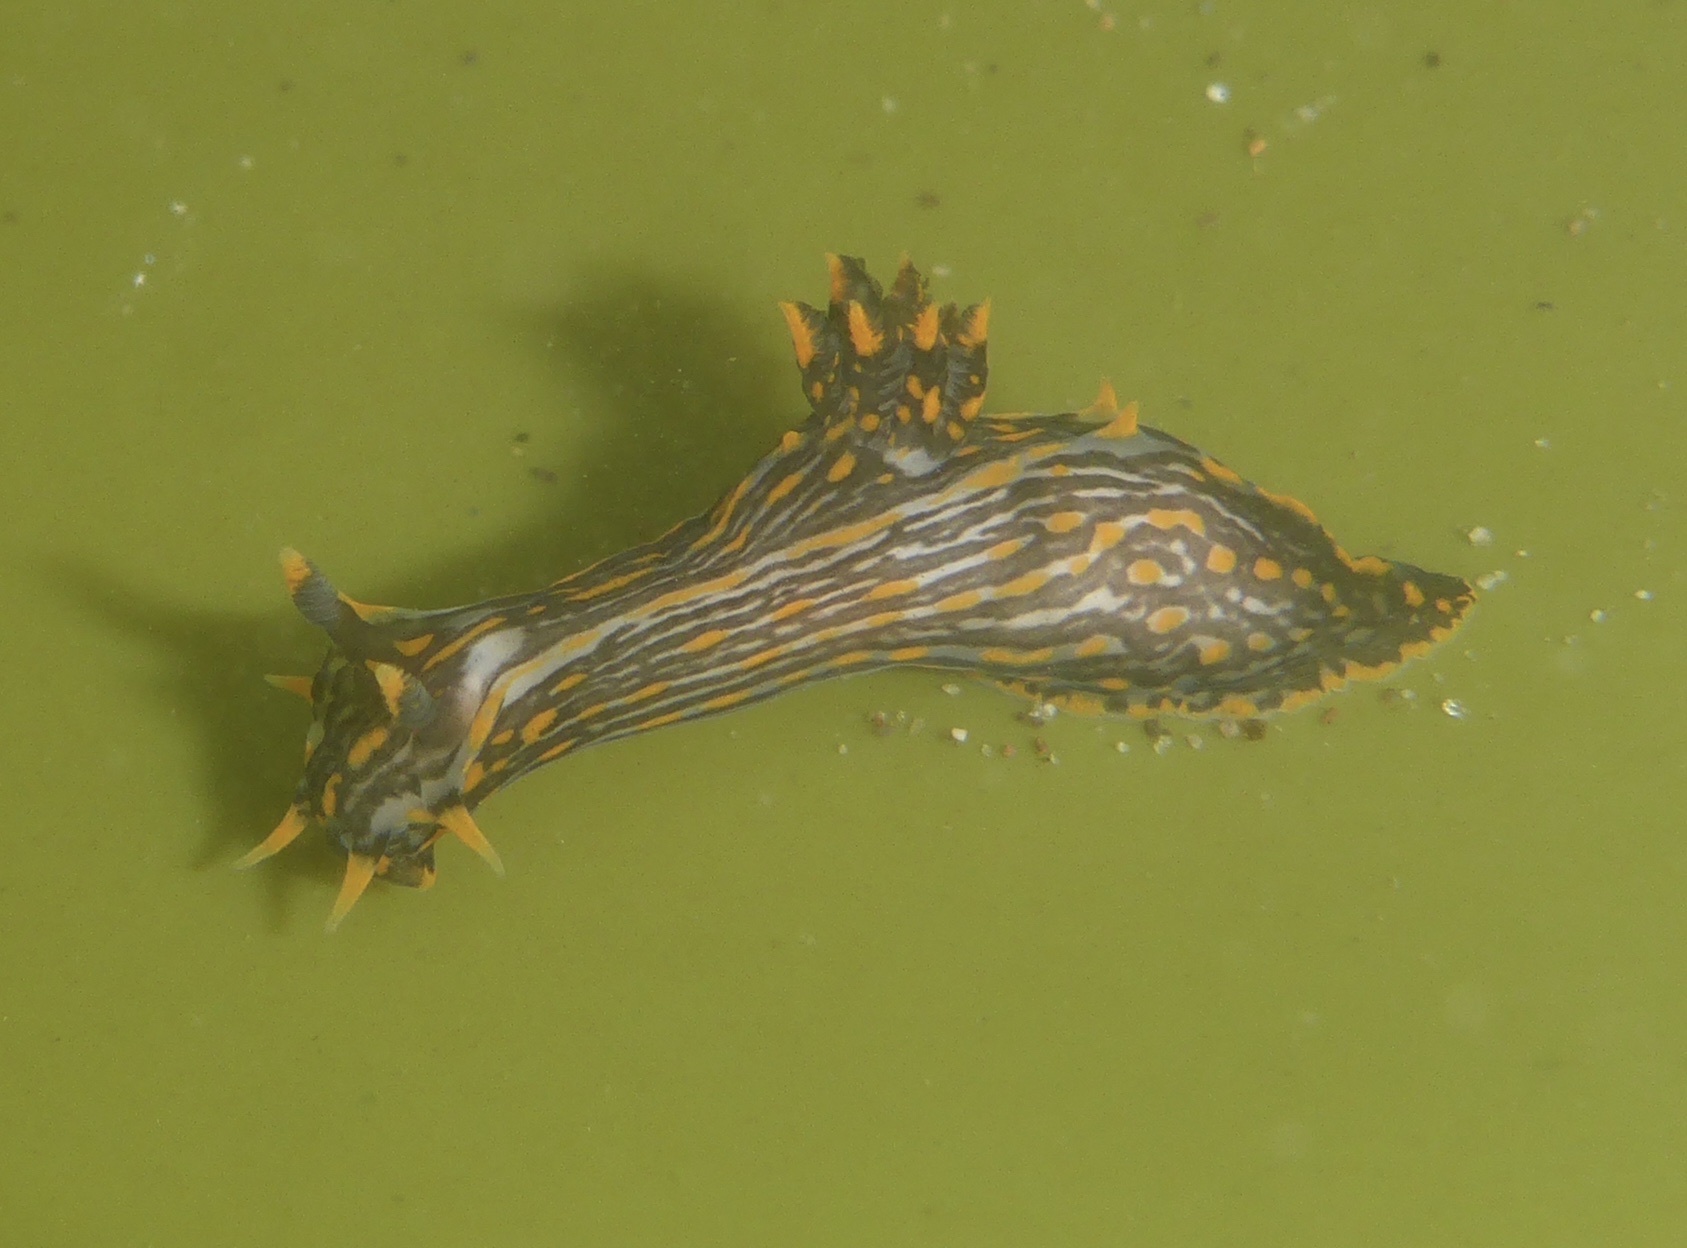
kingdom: Animalia
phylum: Mollusca
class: Gastropoda
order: Nudibranchia
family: Polyceridae
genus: Polycera
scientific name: Polycera atra
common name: Orange-spike polycera
